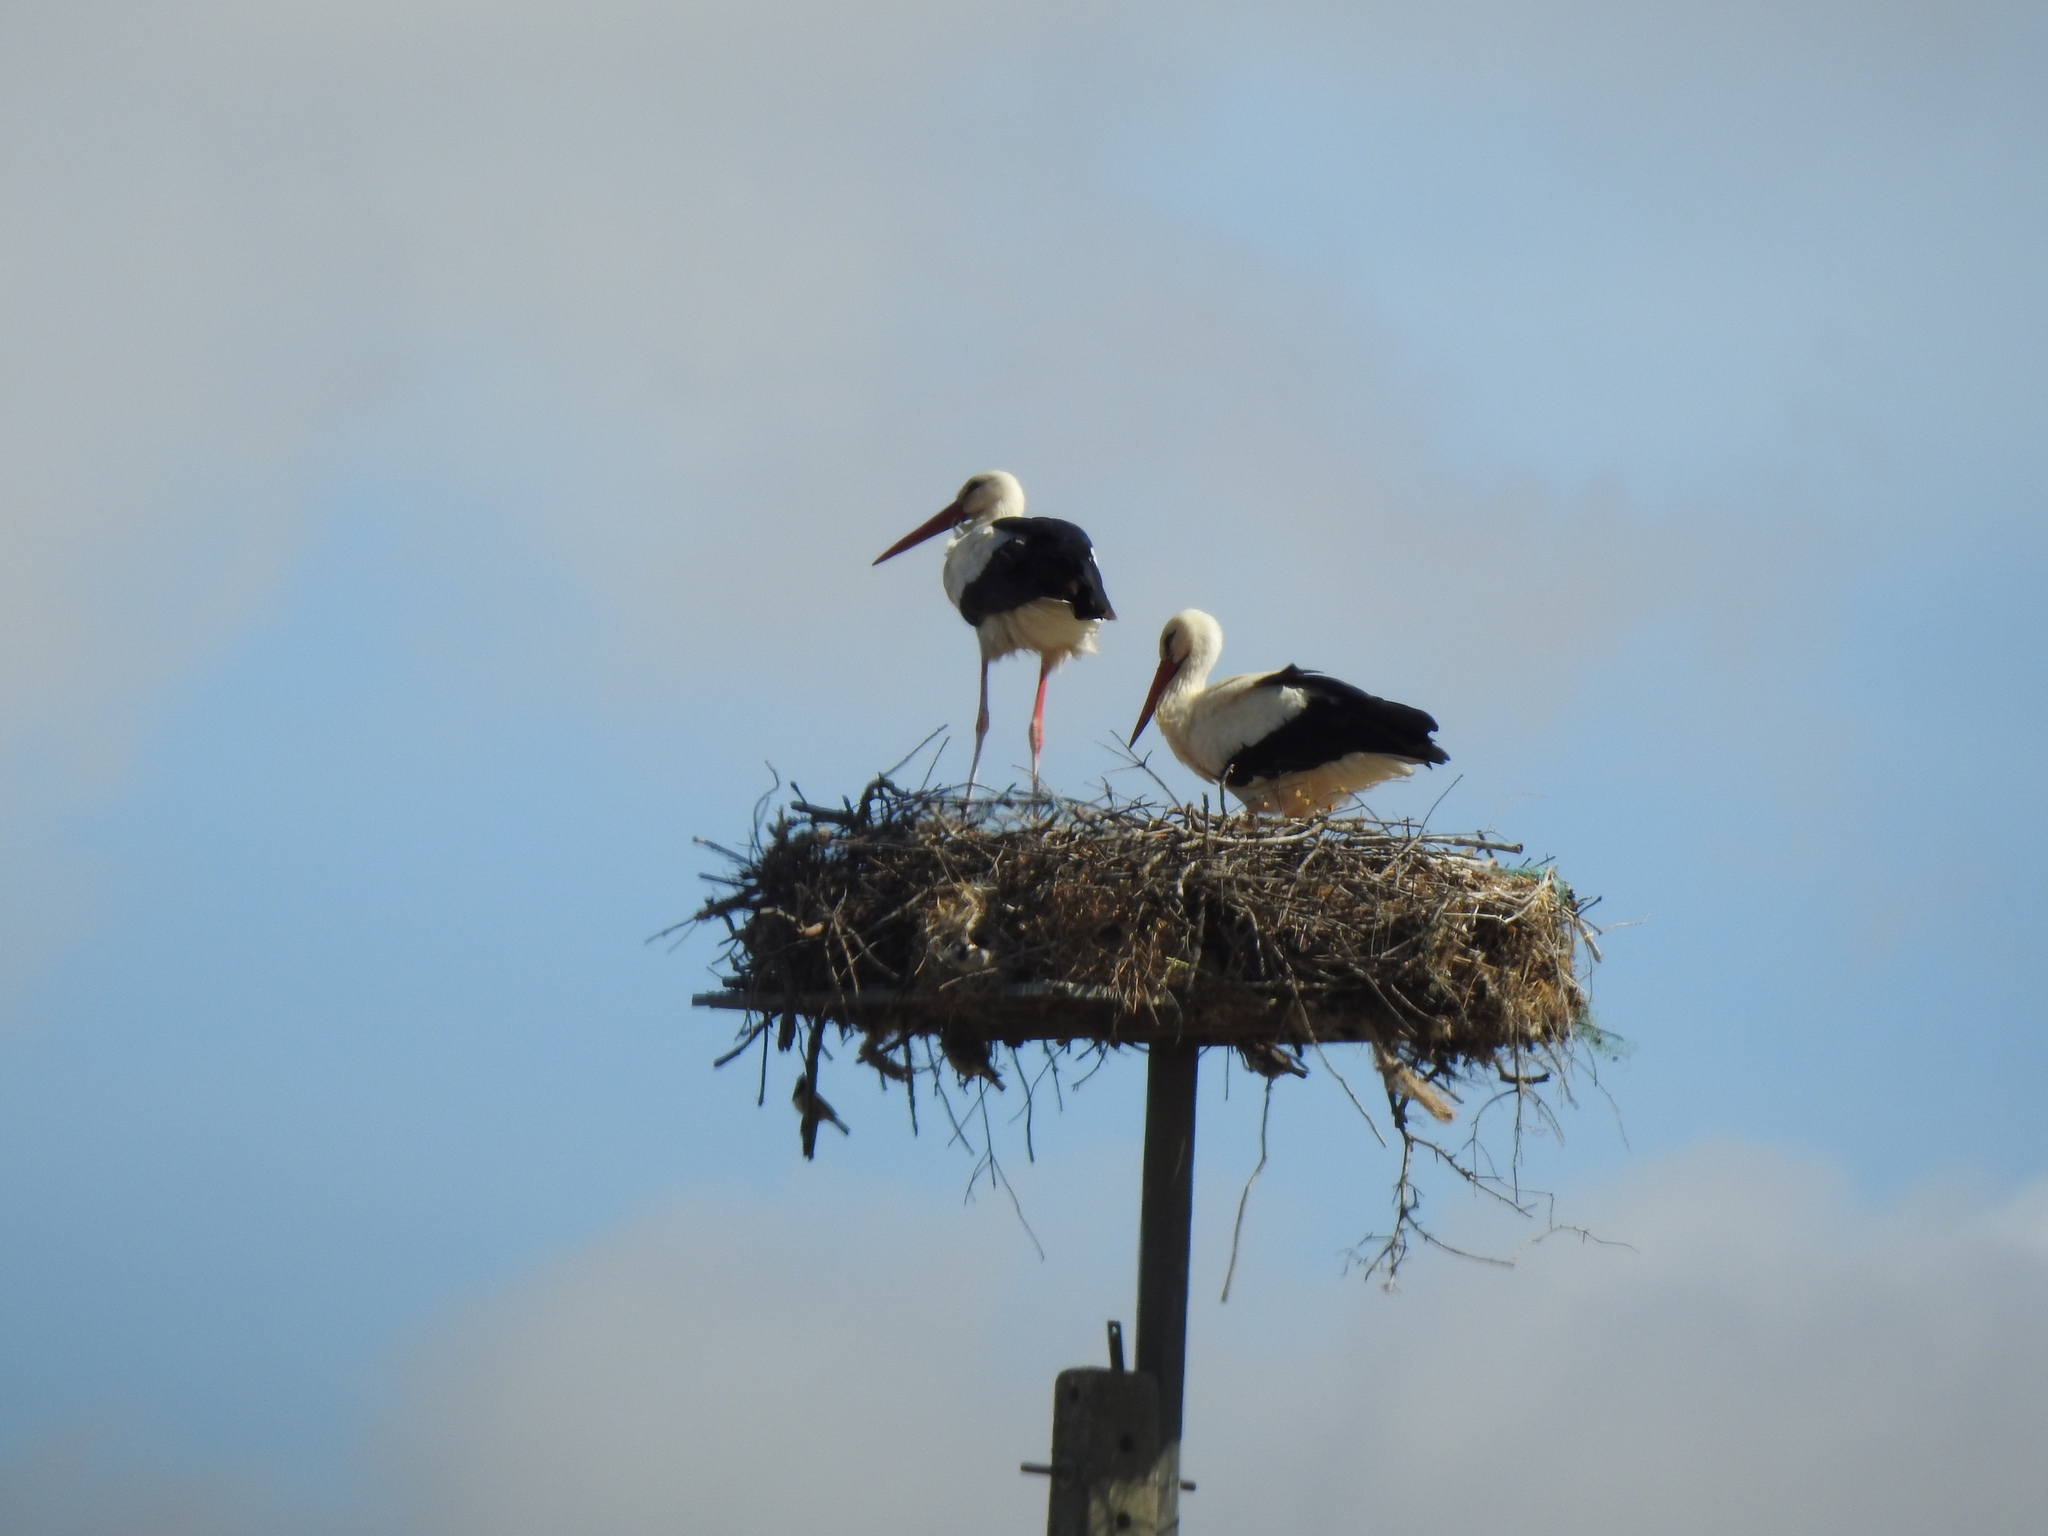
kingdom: Animalia
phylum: Chordata
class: Aves
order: Ciconiiformes
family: Ciconiidae
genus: Ciconia
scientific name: Ciconia ciconia
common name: White stork
